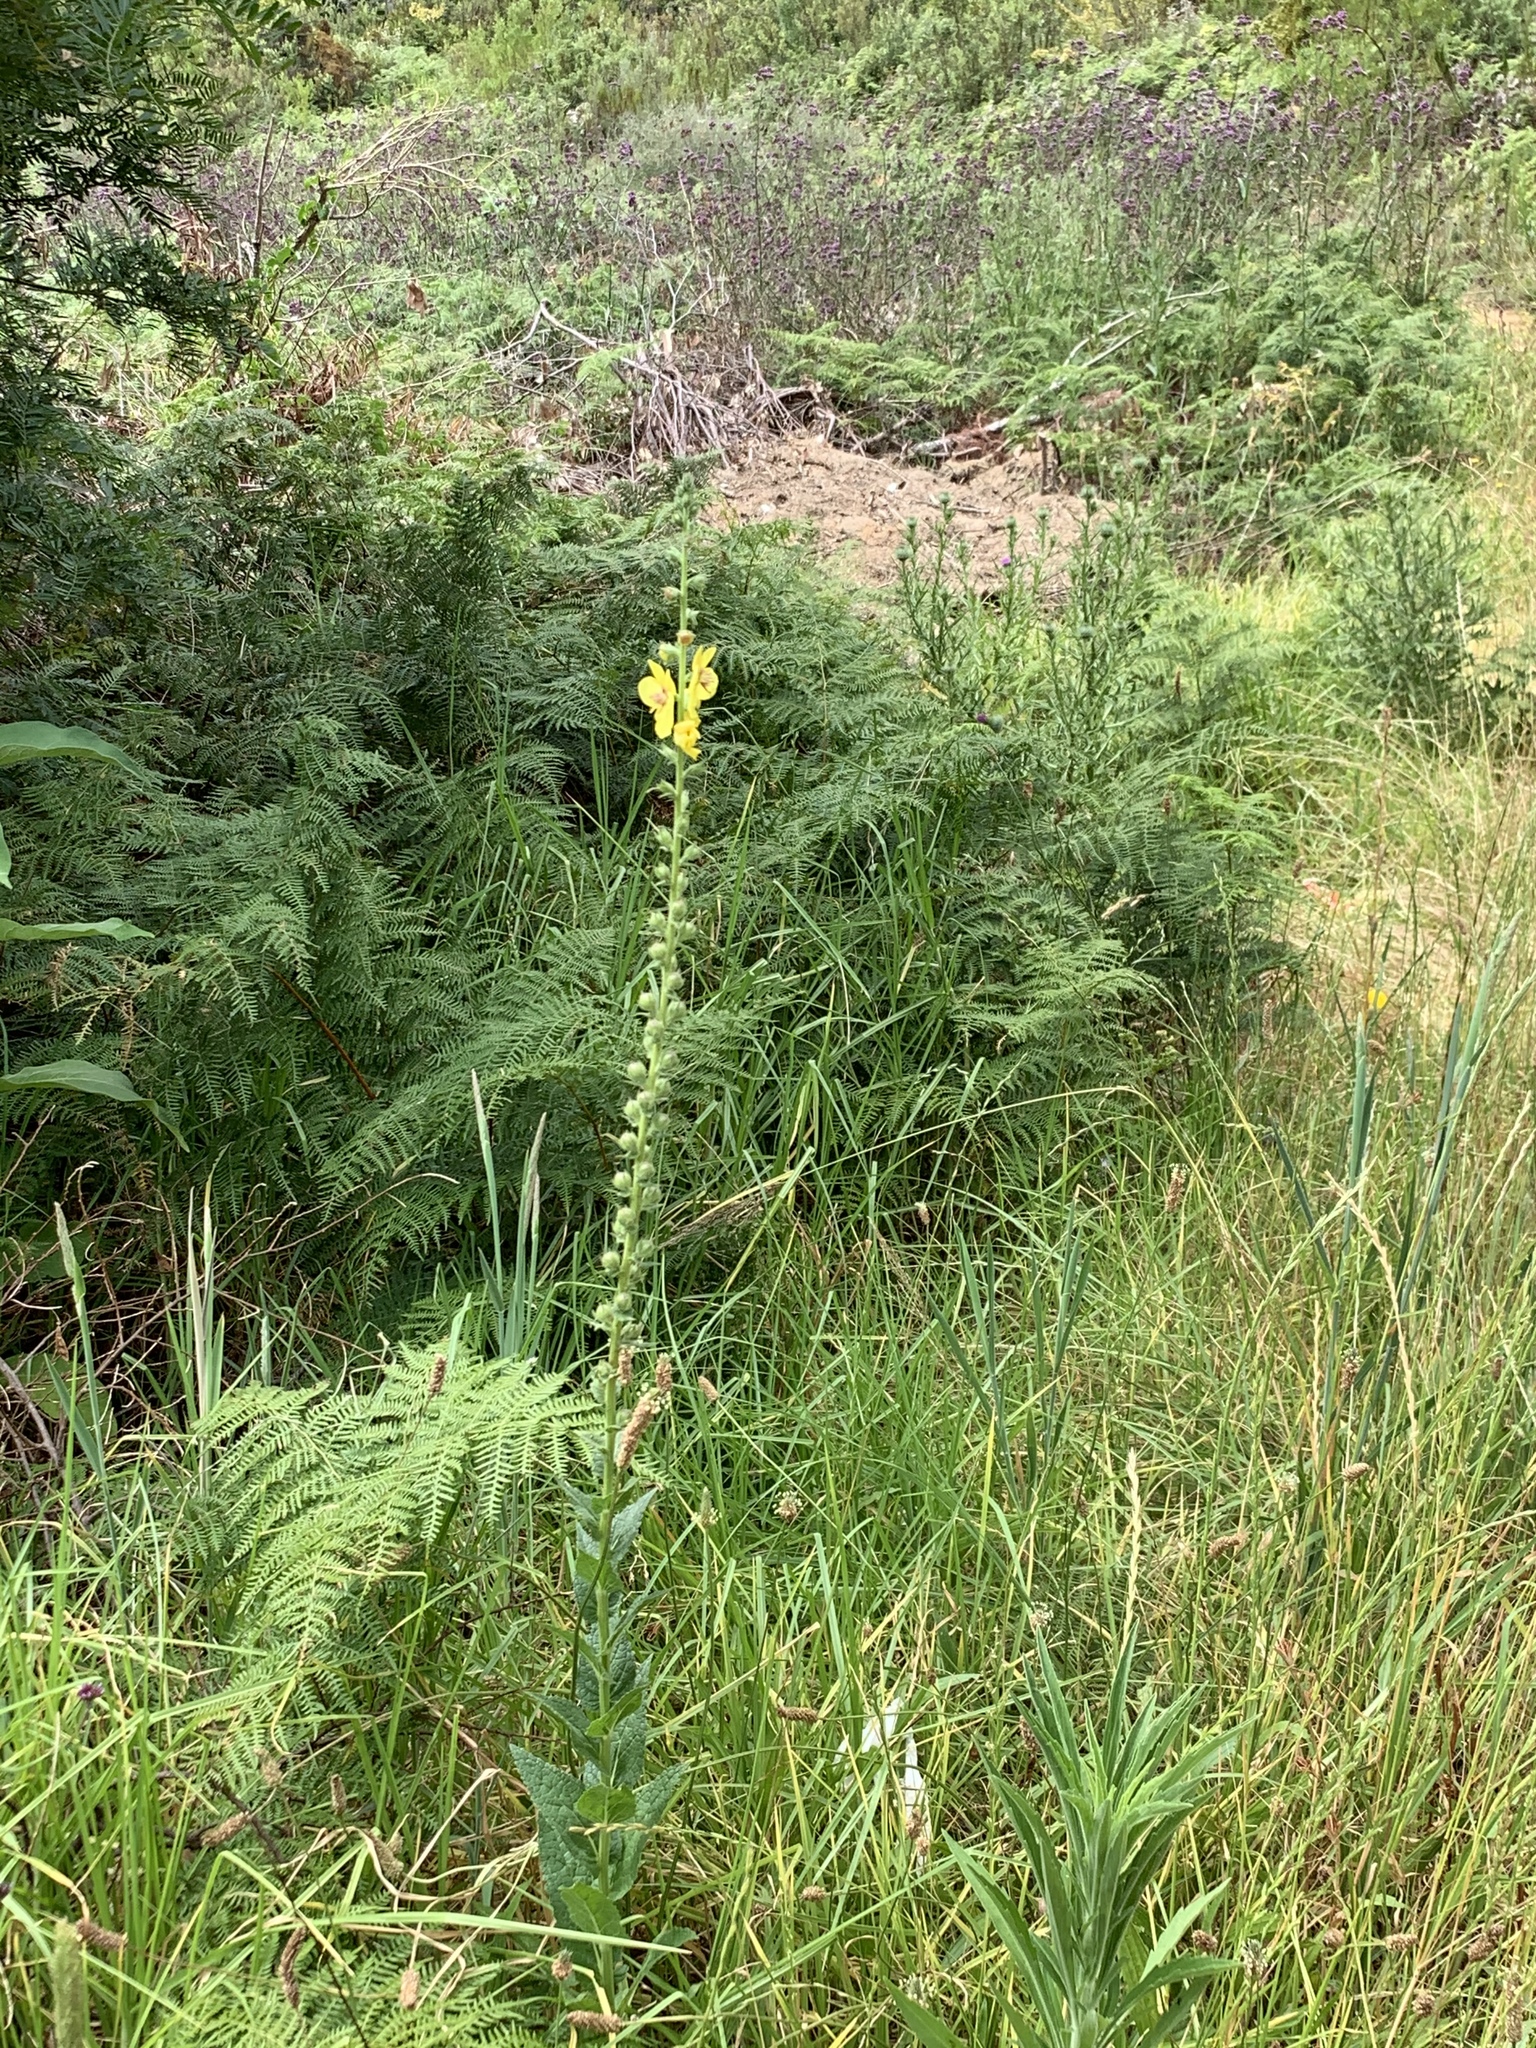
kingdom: Plantae
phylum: Tracheophyta
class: Magnoliopsida
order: Lamiales
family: Scrophulariaceae
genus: Verbascum
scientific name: Verbascum virgatum
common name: Twiggy mullein
